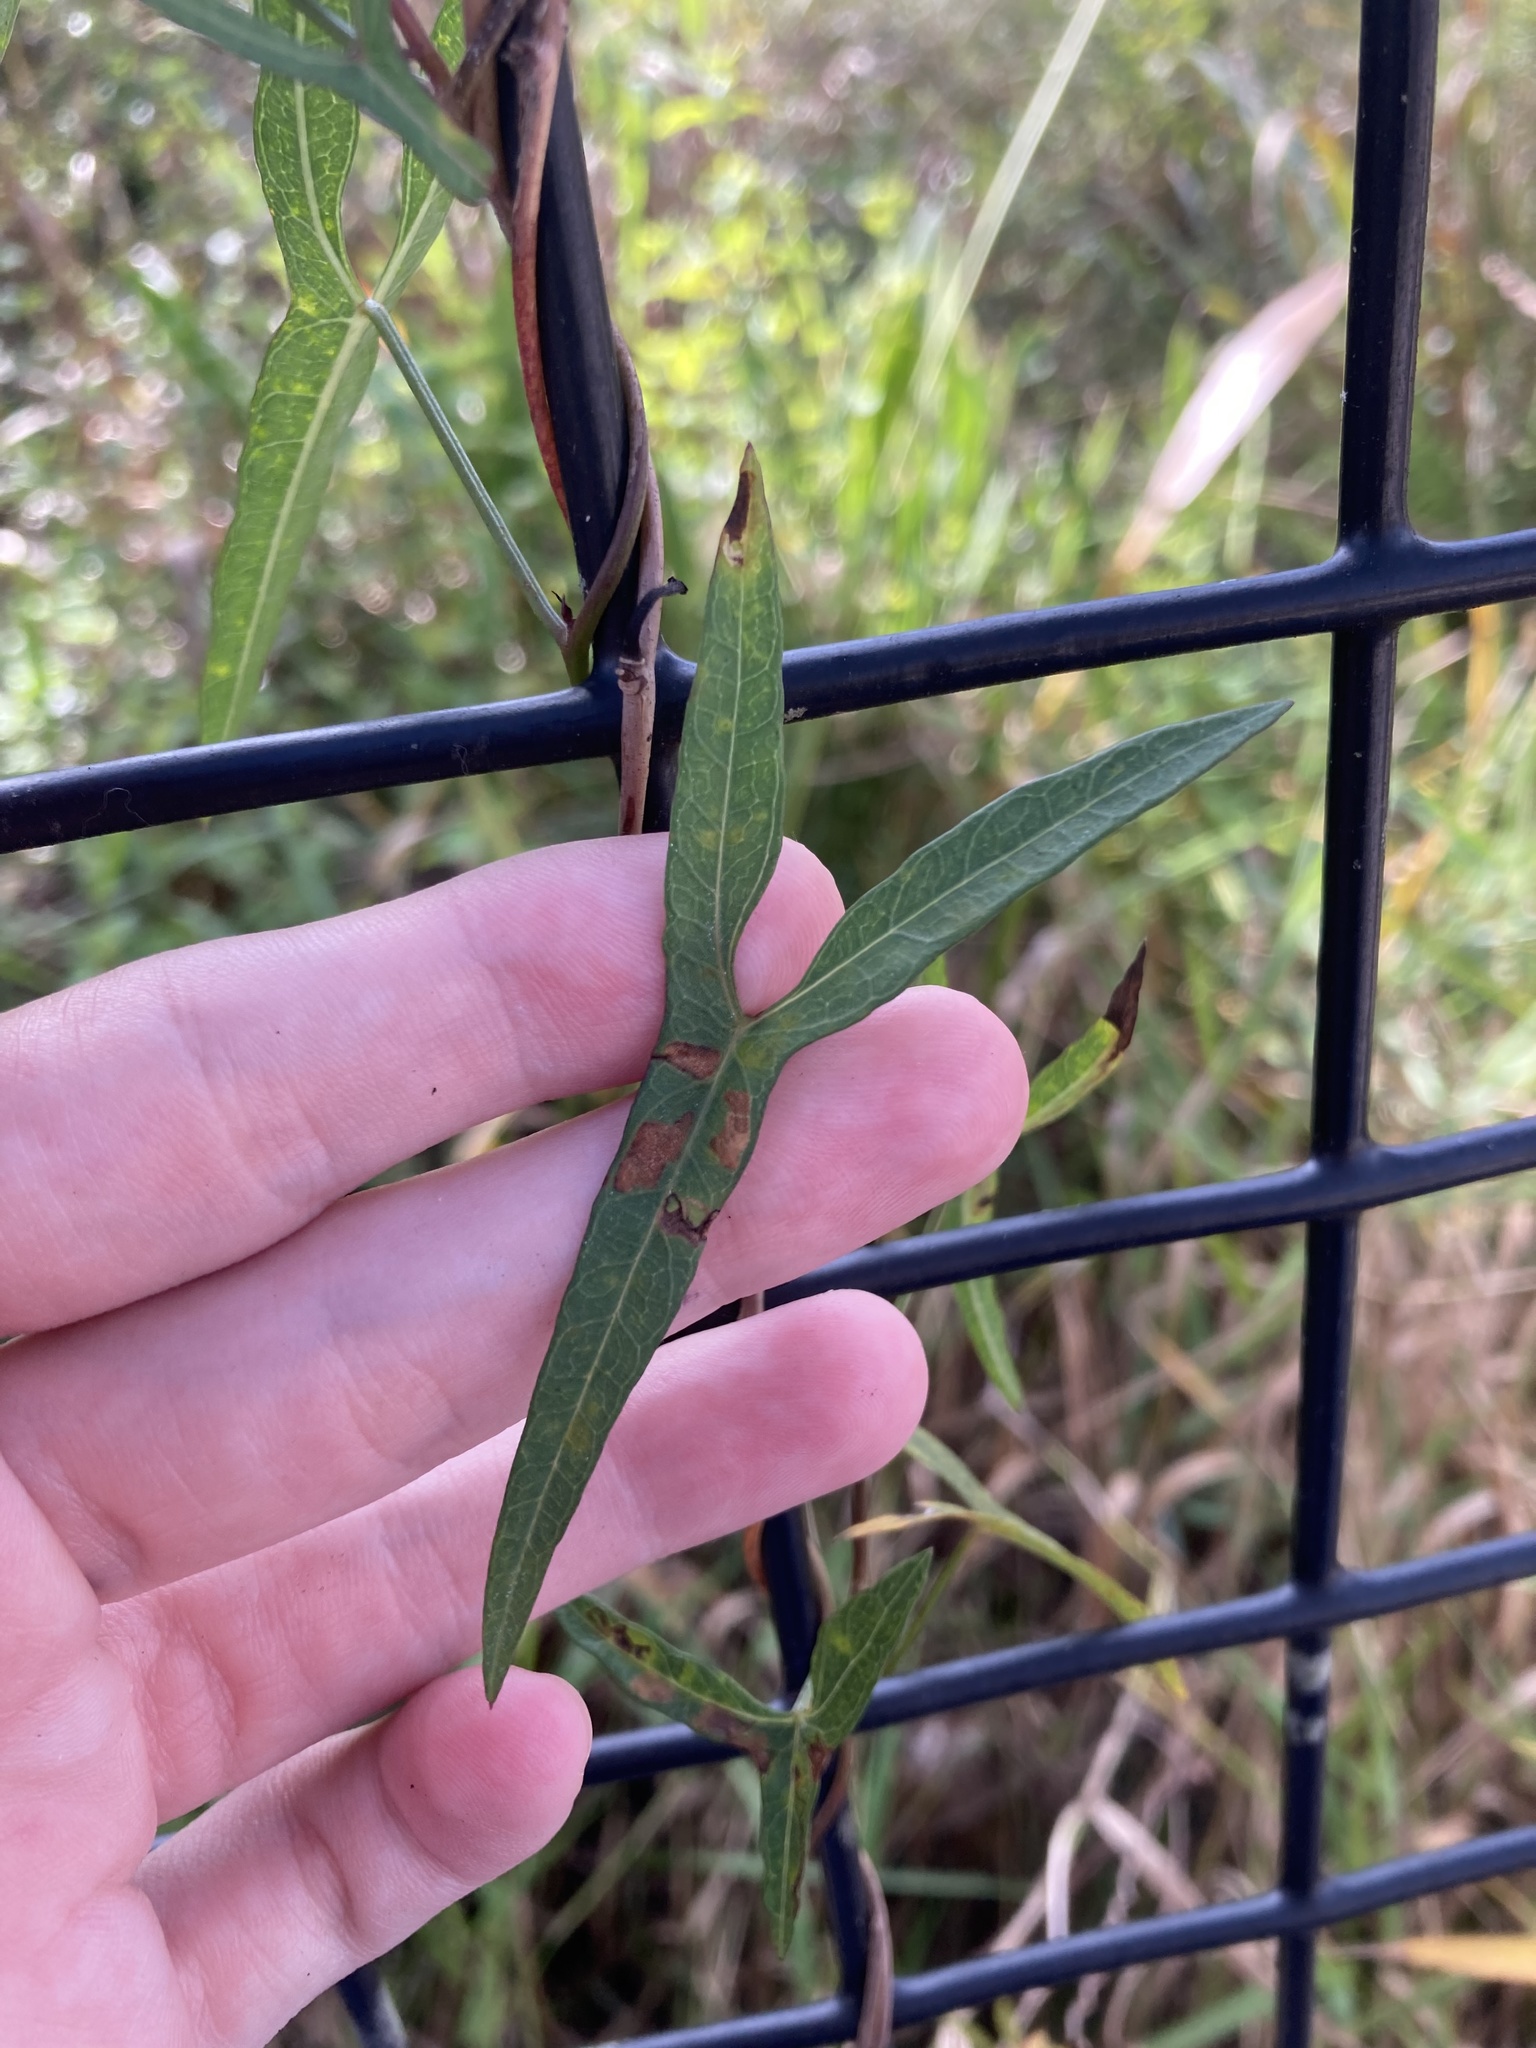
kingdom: Plantae
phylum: Tracheophyta
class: Magnoliopsida
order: Solanales
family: Convolvulaceae
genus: Ipomoea
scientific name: Ipomoea sagittata
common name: Saltmarsh morning glory
